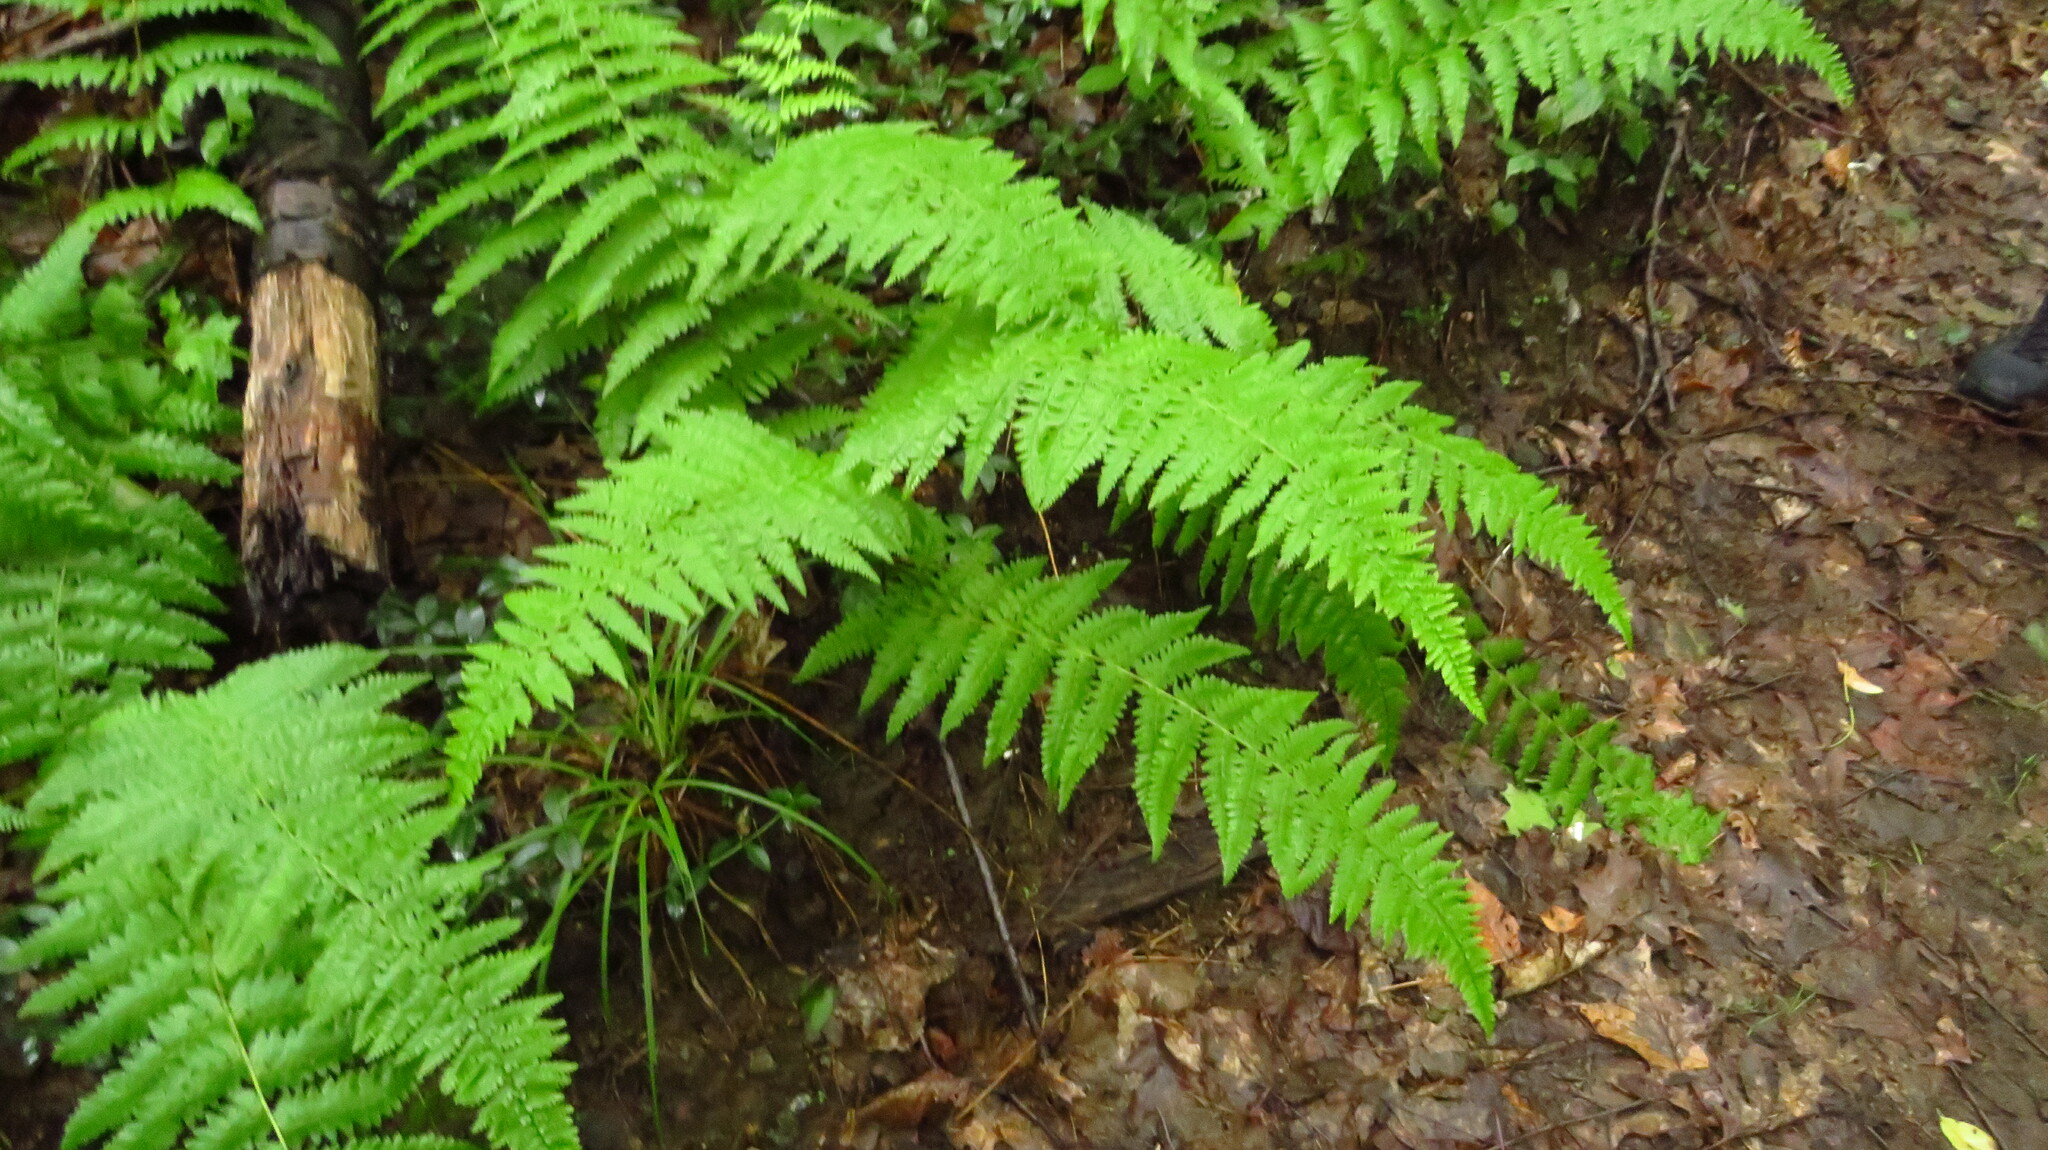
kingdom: Plantae
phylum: Tracheophyta
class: Polypodiopsida
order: Polypodiales
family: Dennstaedtiaceae
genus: Sitobolium
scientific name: Sitobolium punctilobum
